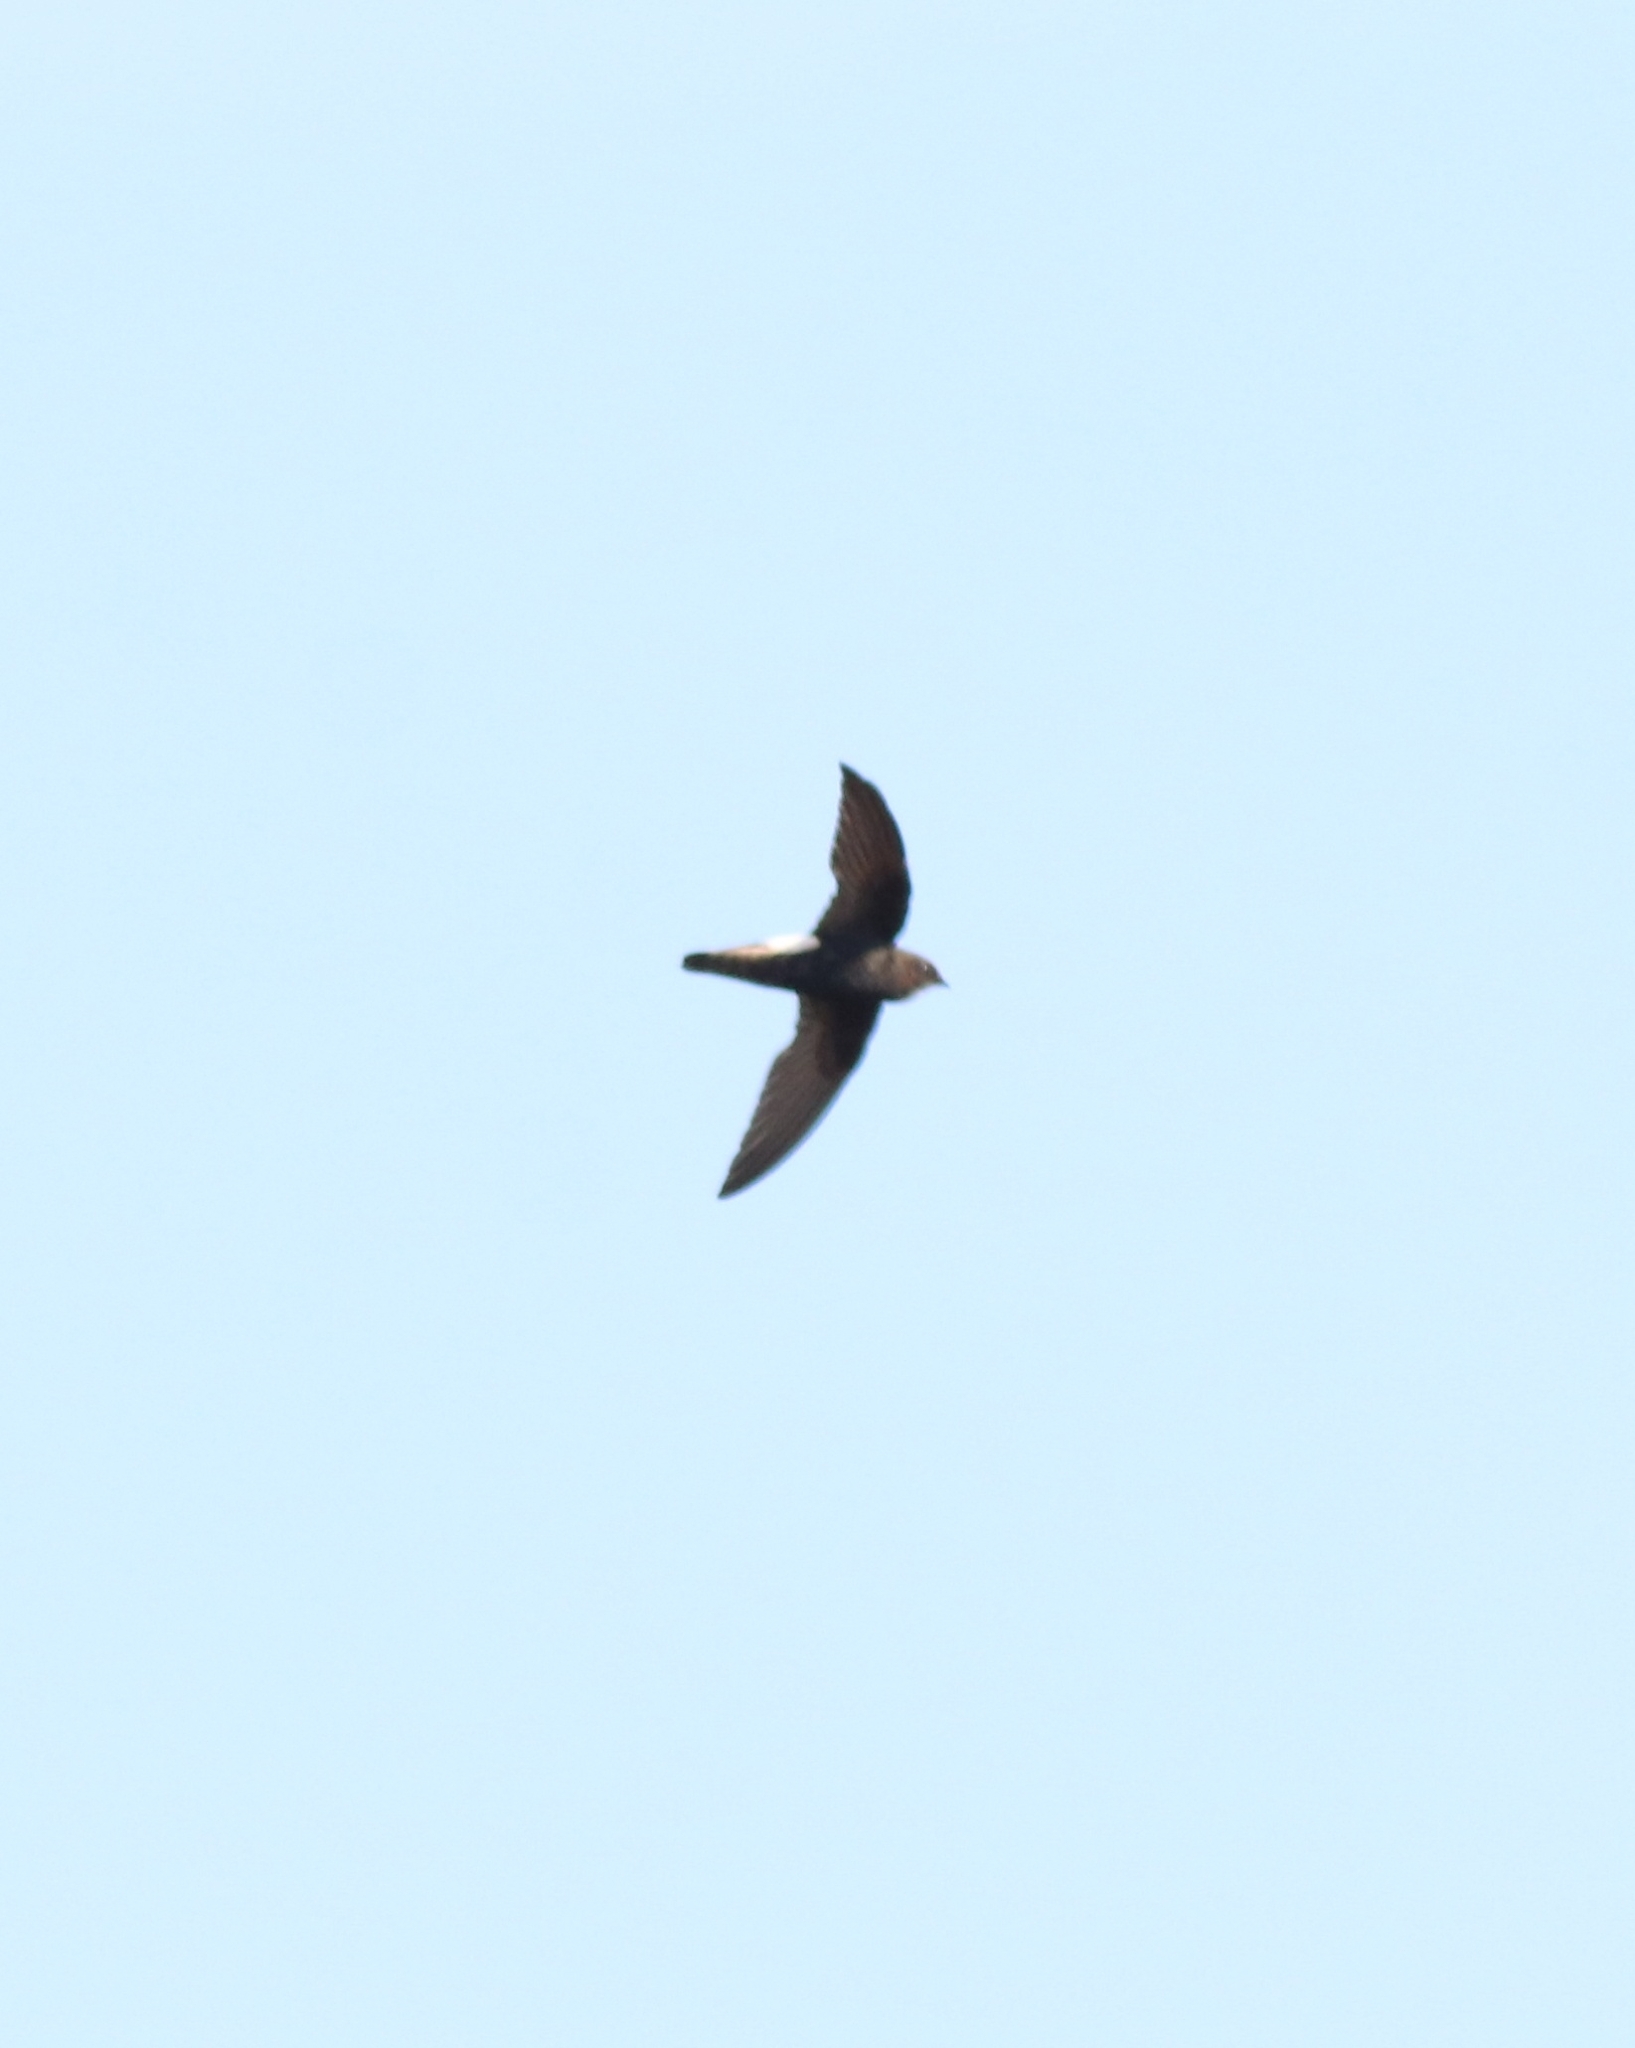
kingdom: Animalia
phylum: Chordata
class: Aves
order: Apodiformes
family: Apodidae
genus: Apus
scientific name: Apus affinis
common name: Little swift
